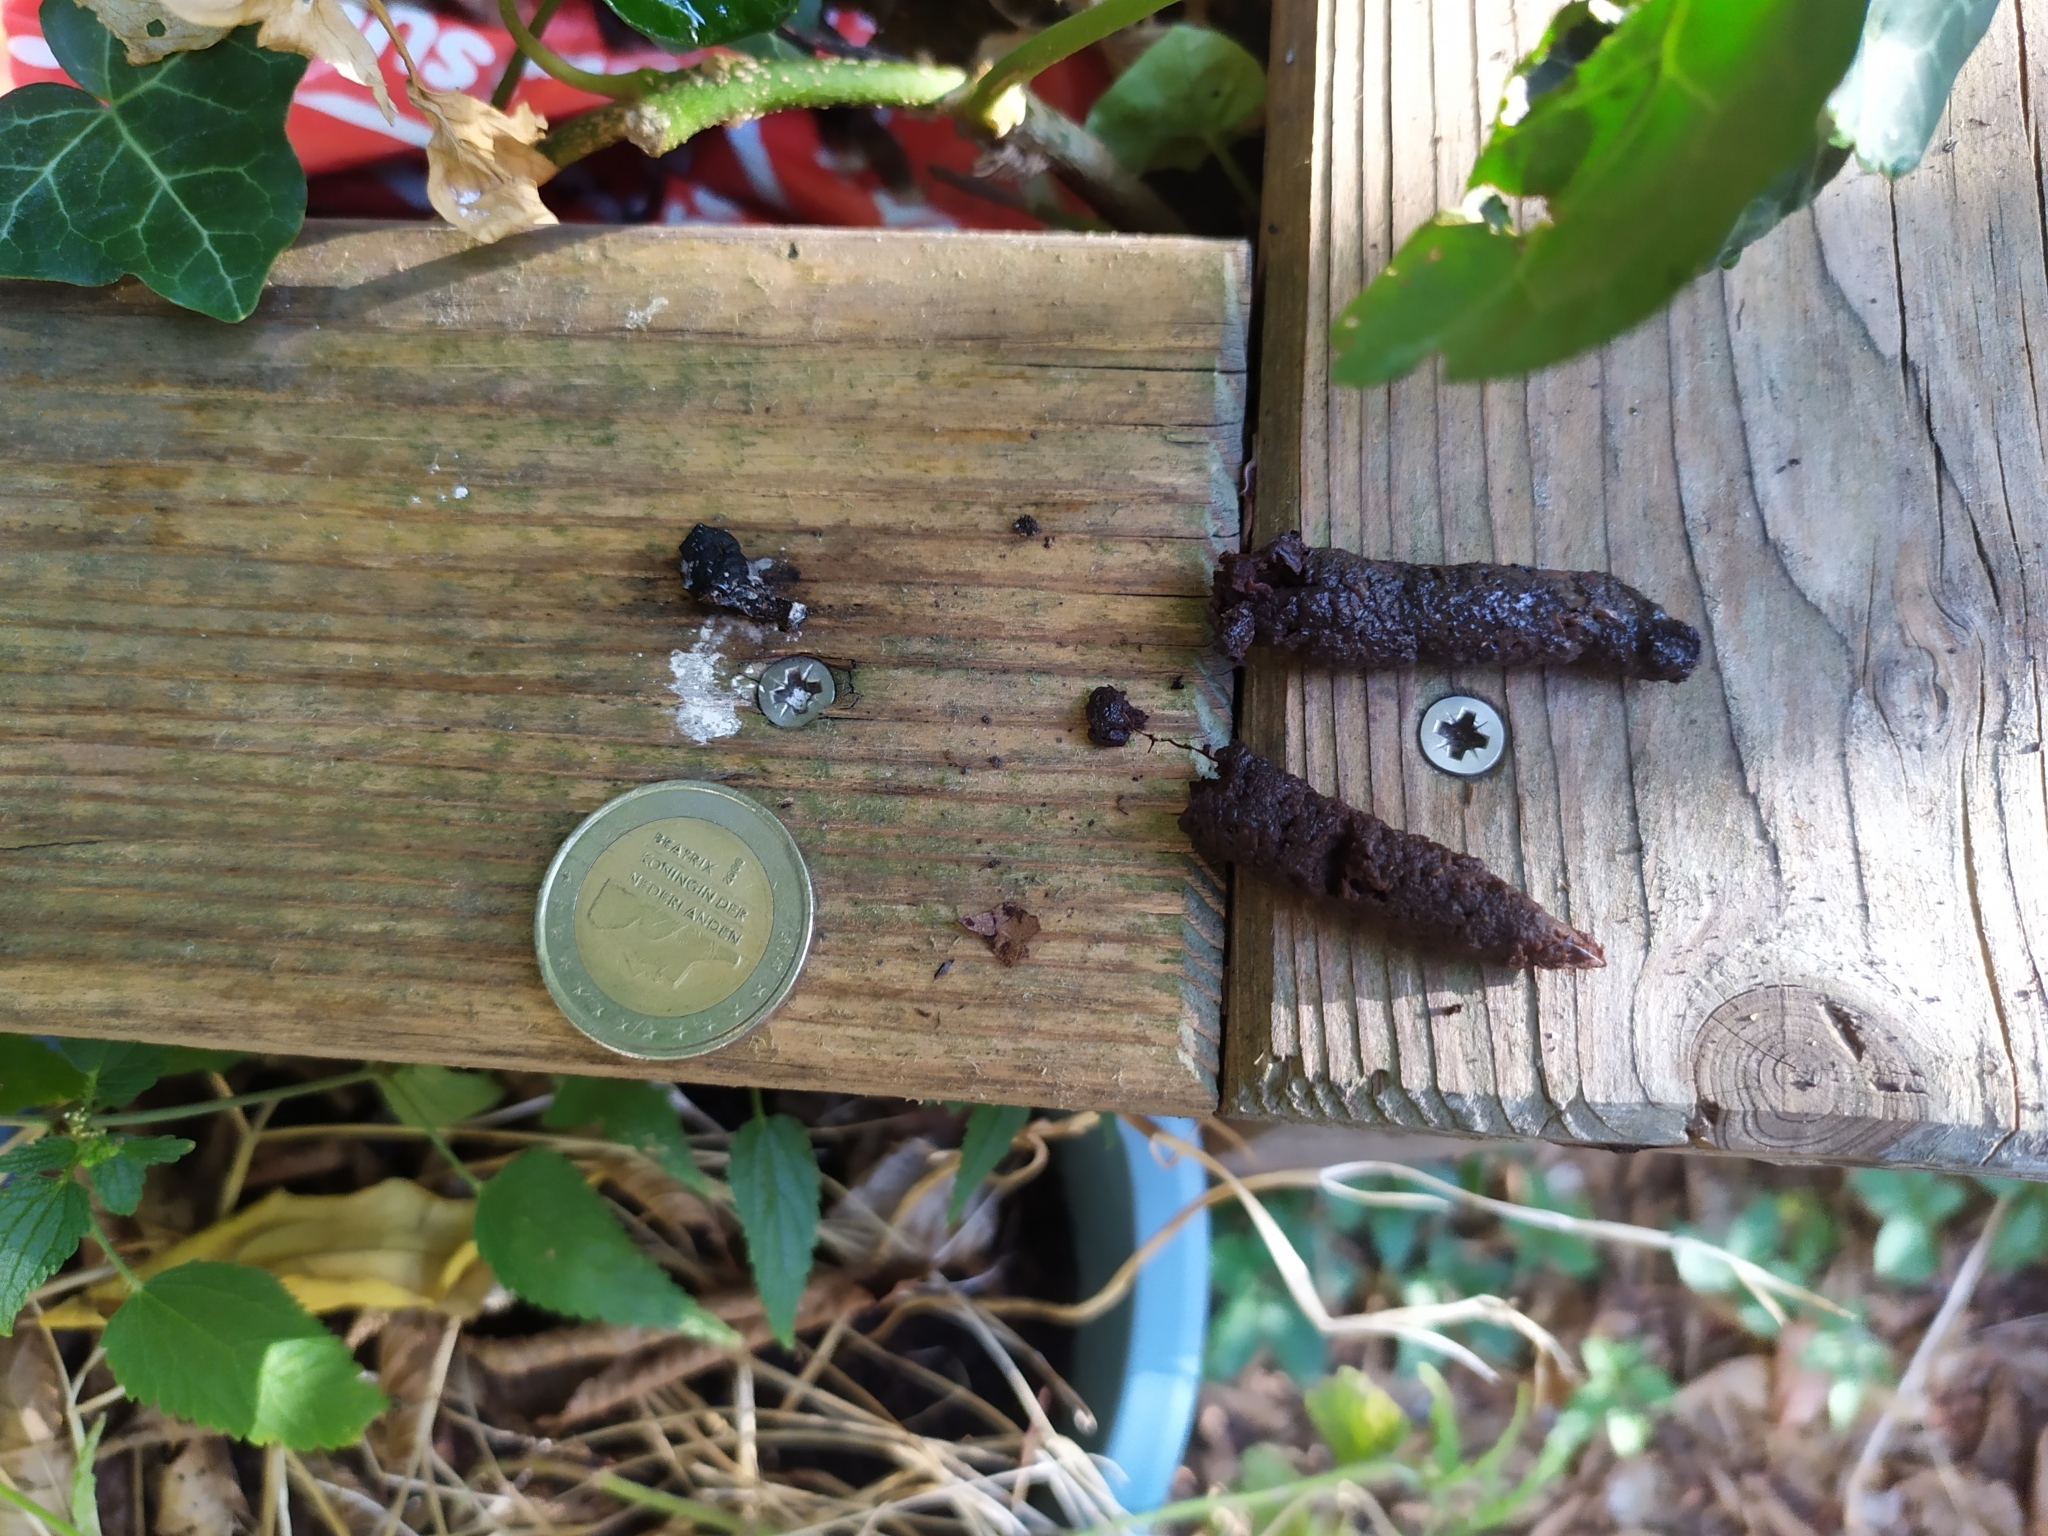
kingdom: Animalia
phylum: Chordata
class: Mammalia
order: Carnivora
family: Mustelidae
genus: Martes
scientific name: Martes foina
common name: Beech marten
